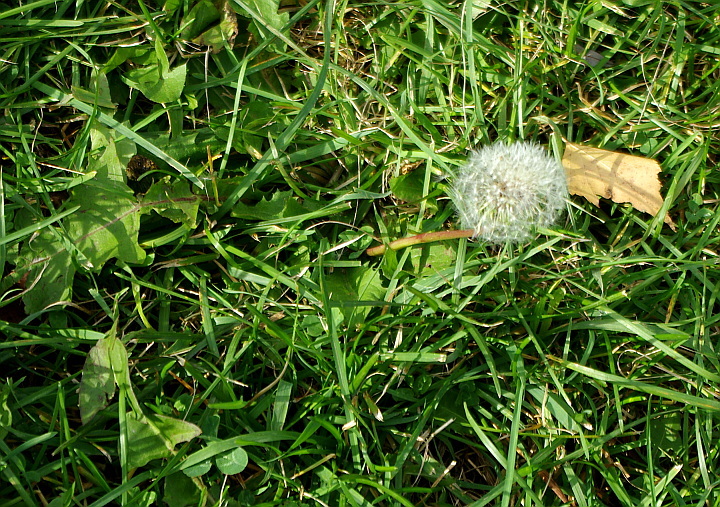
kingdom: Plantae
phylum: Tracheophyta
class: Magnoliopsida
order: Asterales
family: Asteraceae
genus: Taraxacum
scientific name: Taraxacum officinale
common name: Common dandelion
